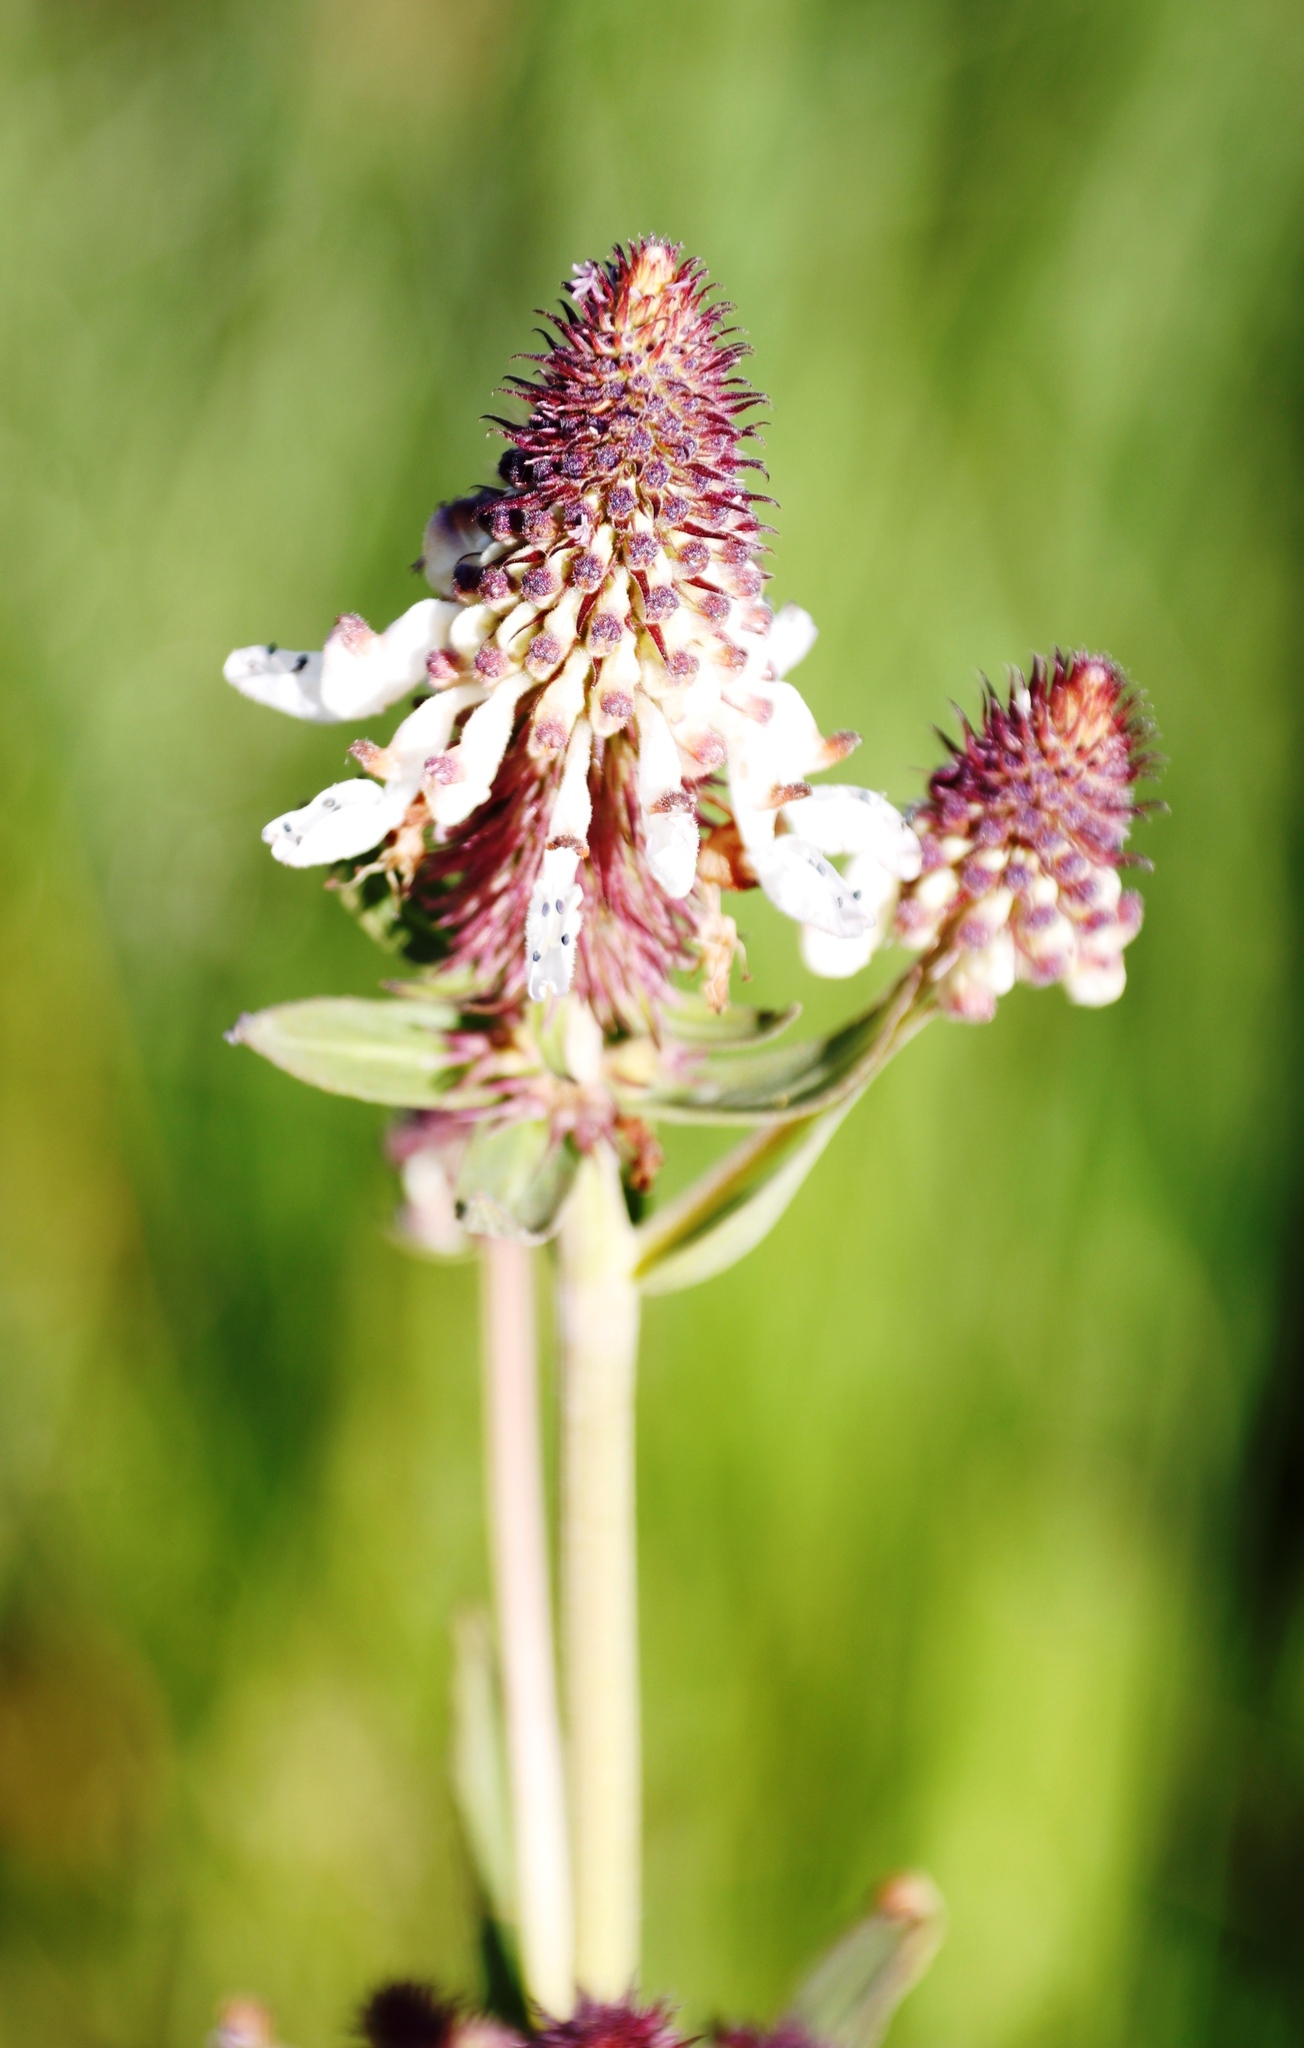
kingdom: Plantae
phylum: Tracheophyta
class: Magnoliopsida
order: Lamiales
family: Lamiaceae
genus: Coleus
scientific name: Coleus kirkii
